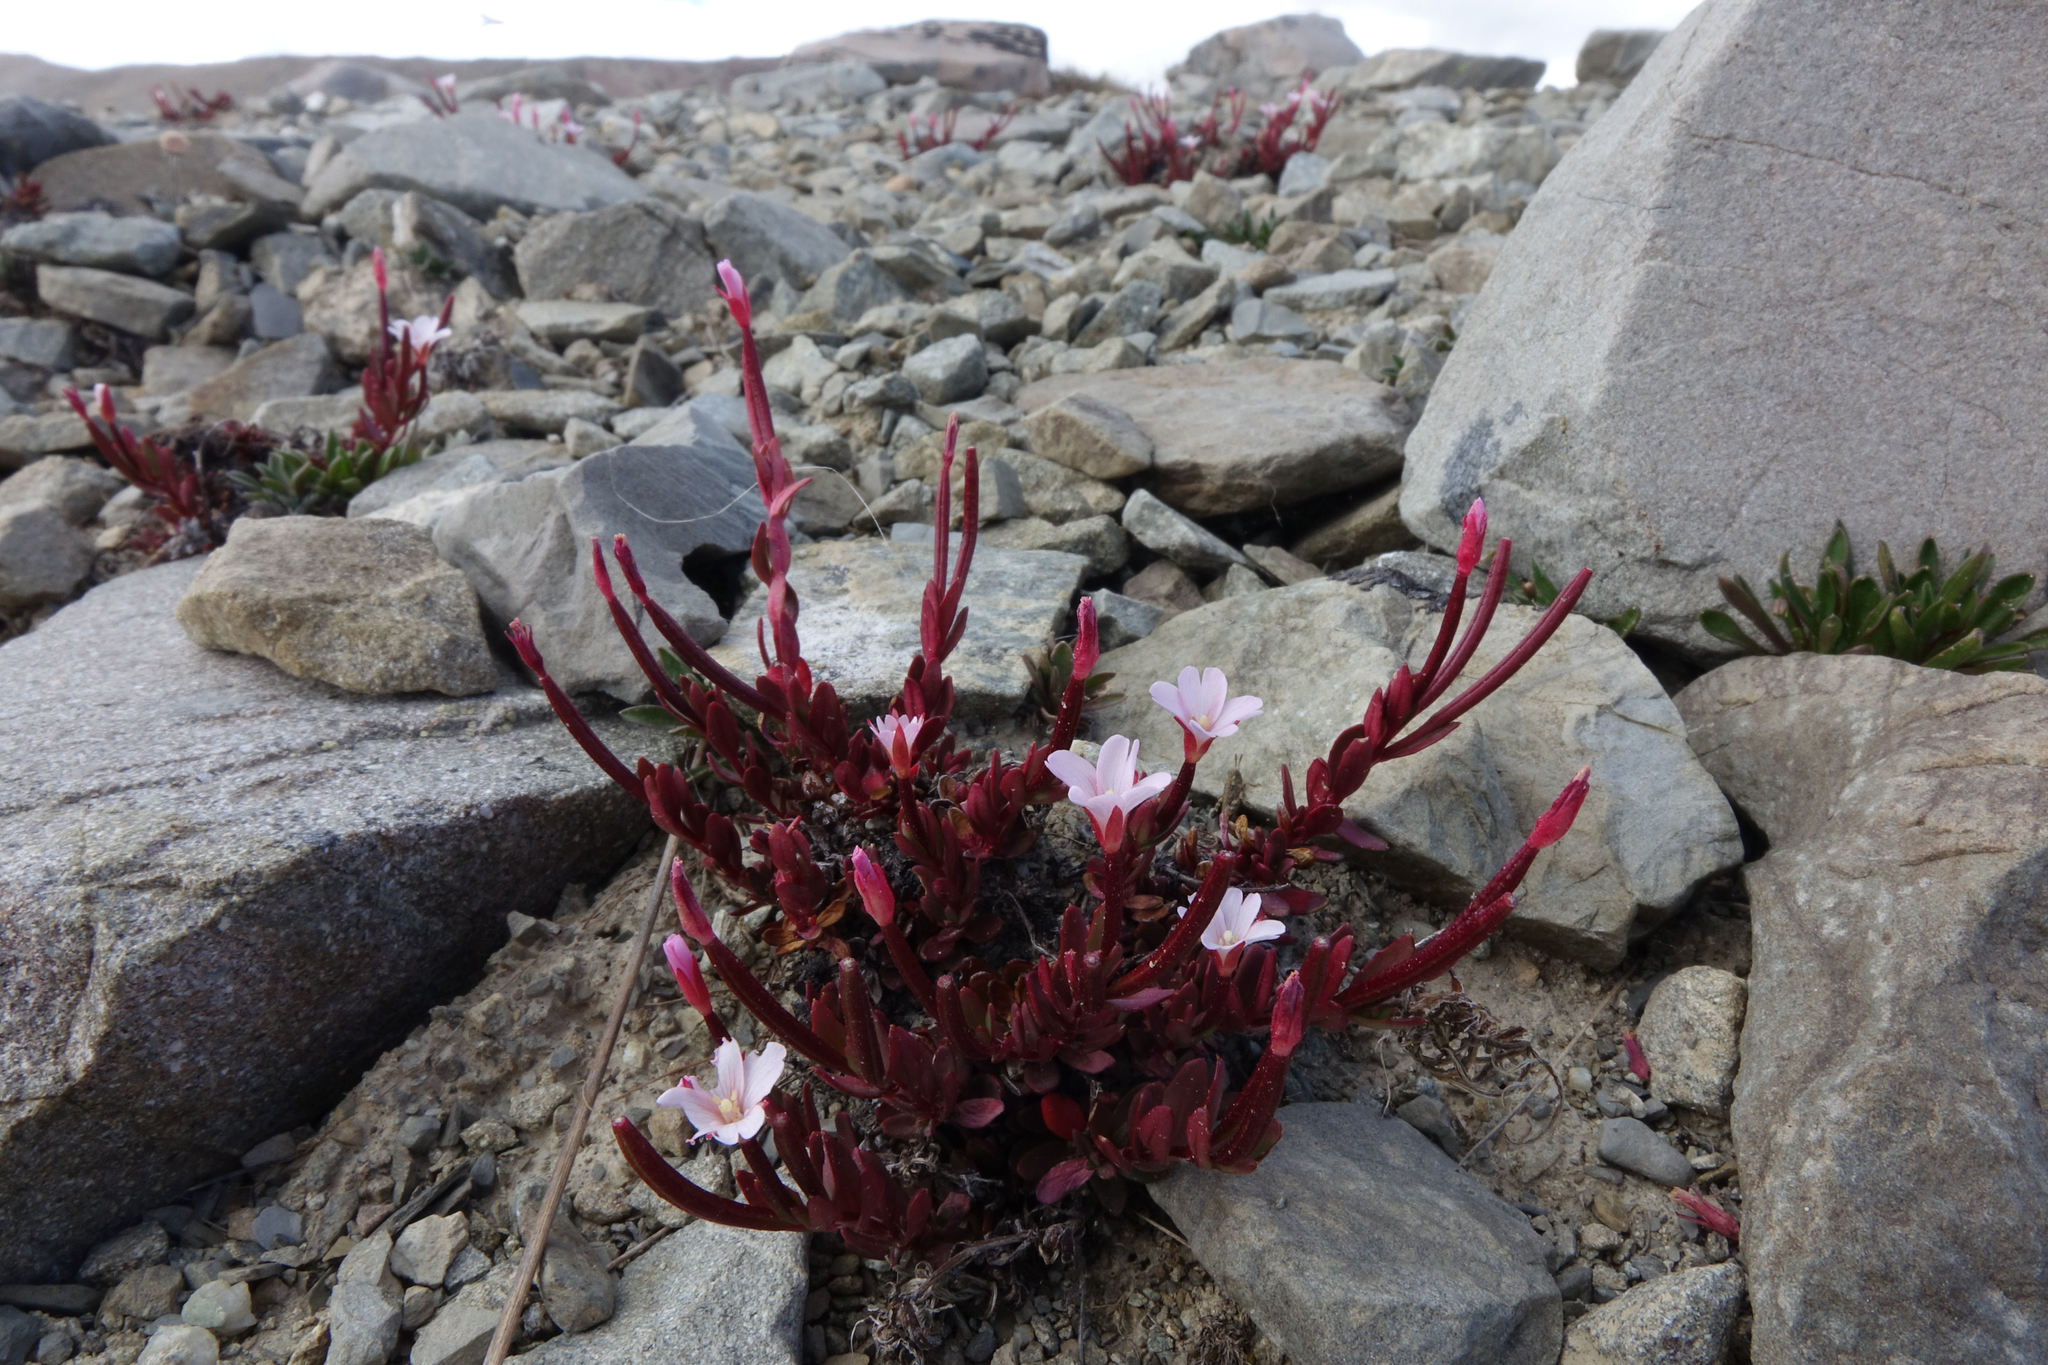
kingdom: Plantae
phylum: Tracheophyta
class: Magnoliopsida
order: Myrtales
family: Onagraceae
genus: Epilobium
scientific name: Epilobium porphyrium
